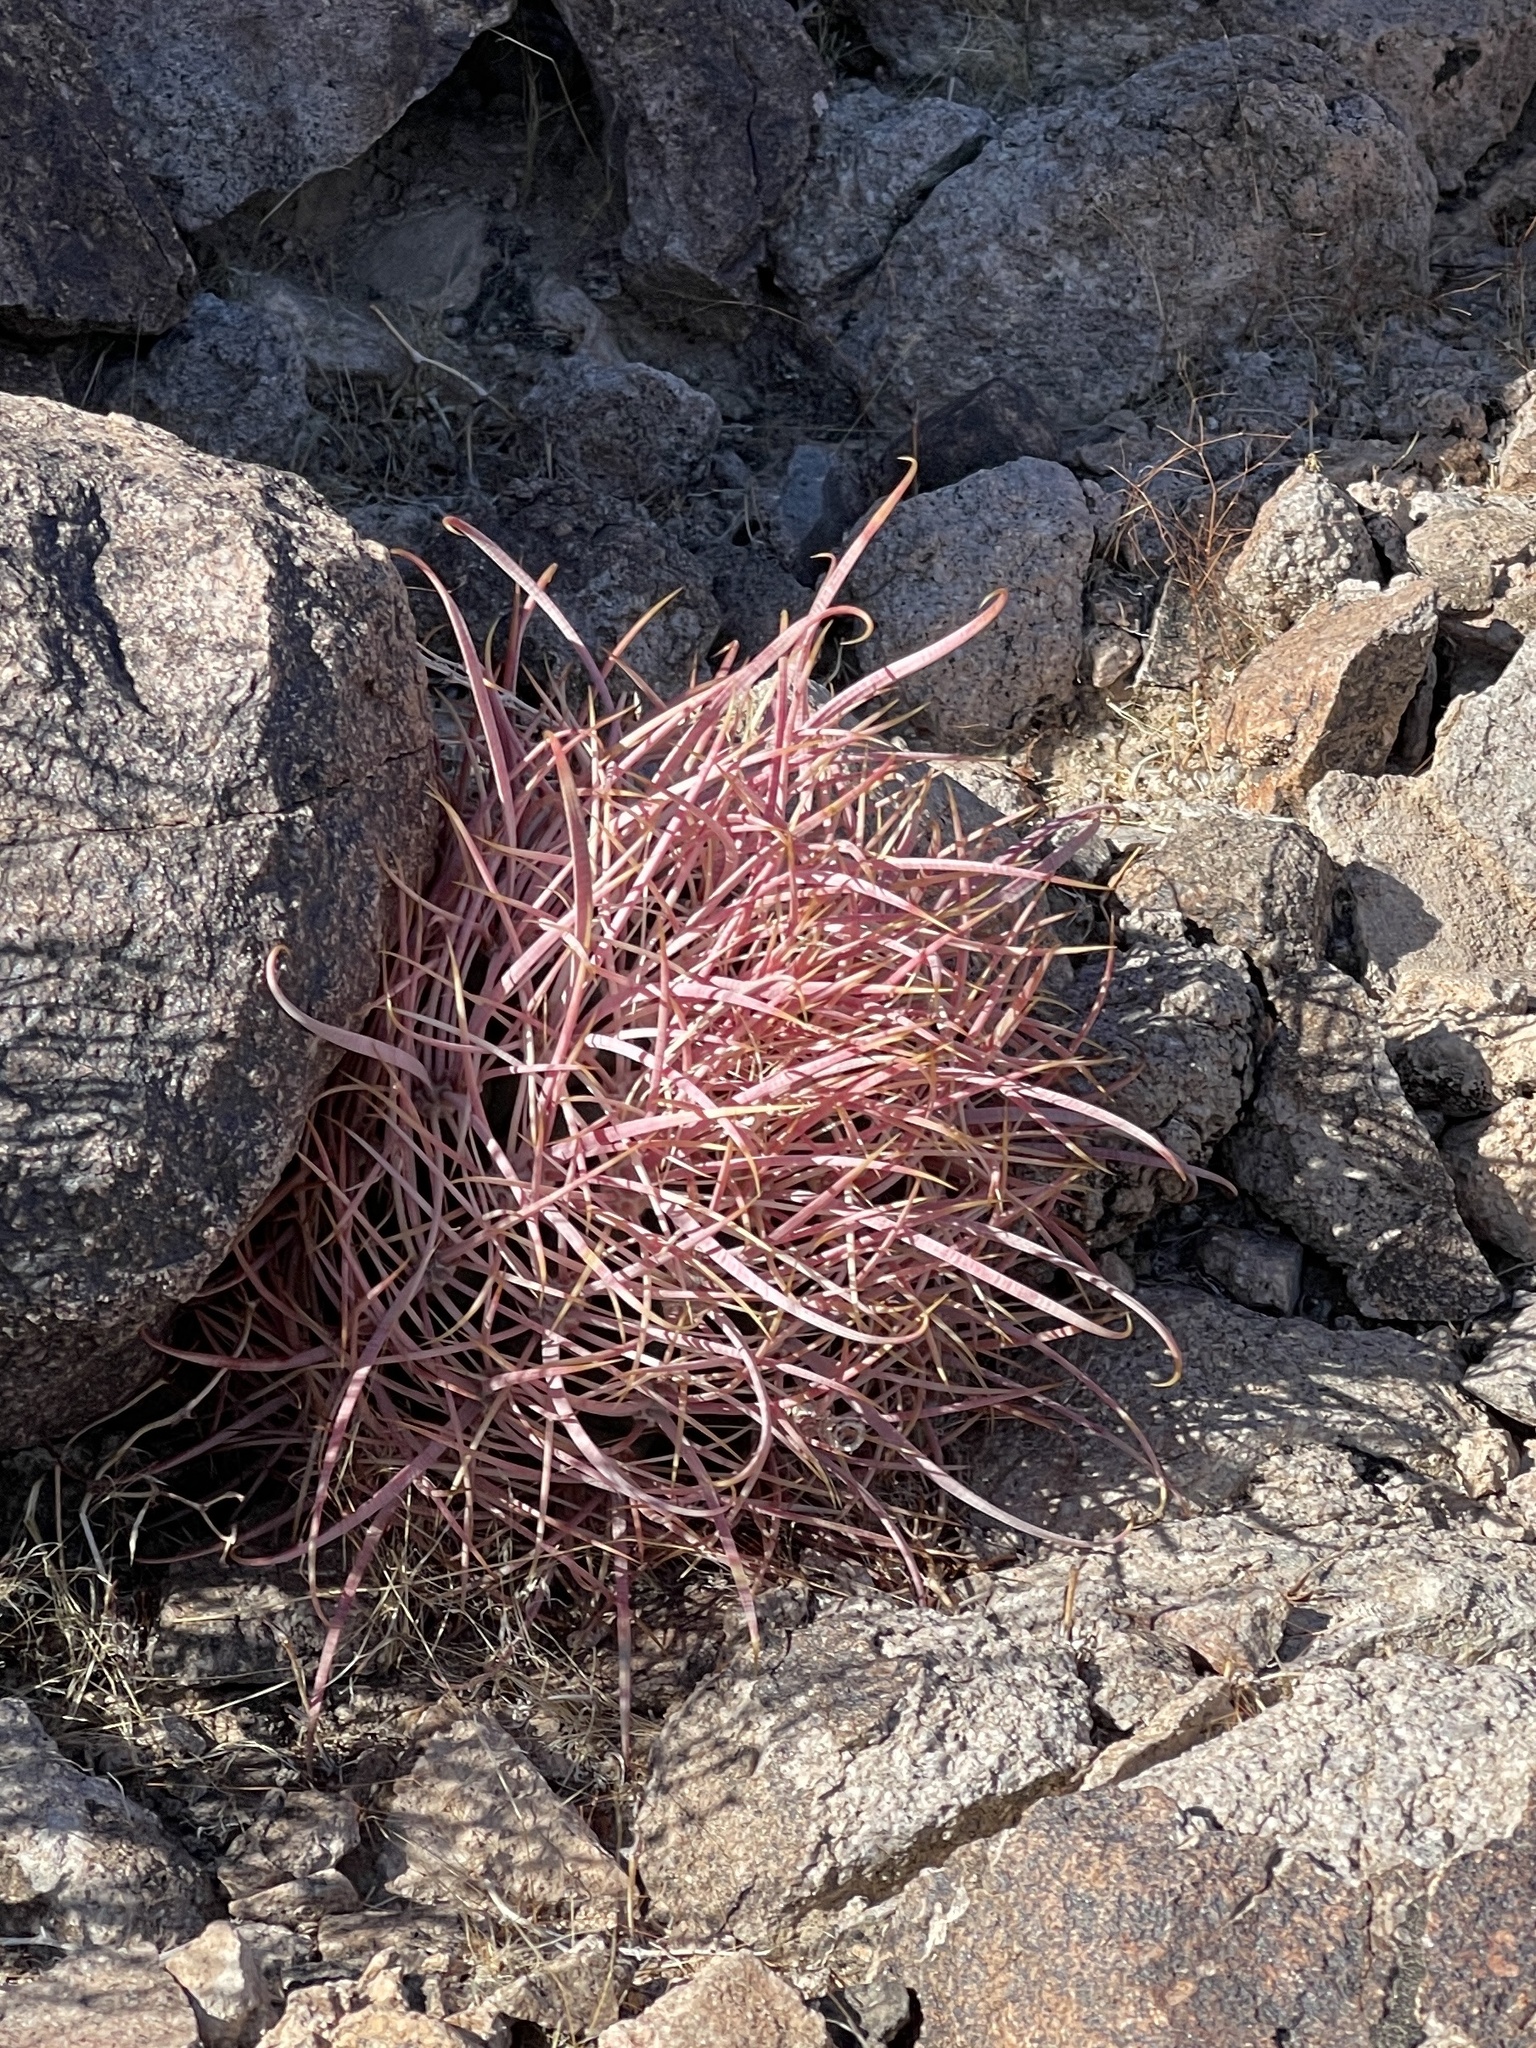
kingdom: Plantae
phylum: Tracheophyta
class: Magnoliopsida
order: Caryophyllales
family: Cactaceae
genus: Ferocactus
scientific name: Ferocactus cylindraceus
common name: California barrel cactus
